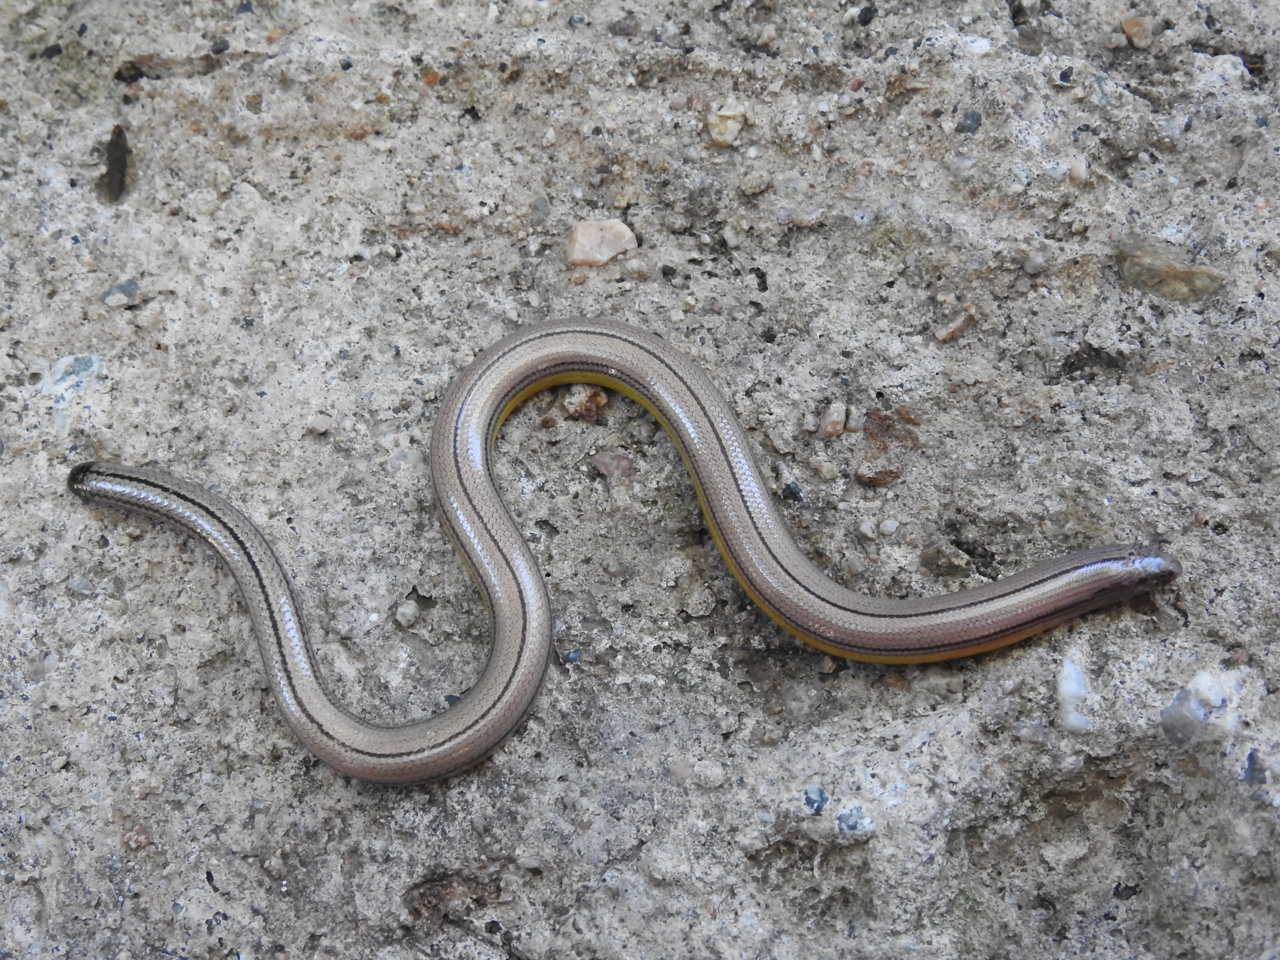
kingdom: Animalia
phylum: Chordata
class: Squamata
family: Anguidae
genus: Anniella
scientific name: Anniella stebbinsi
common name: Southern california legless lizard
